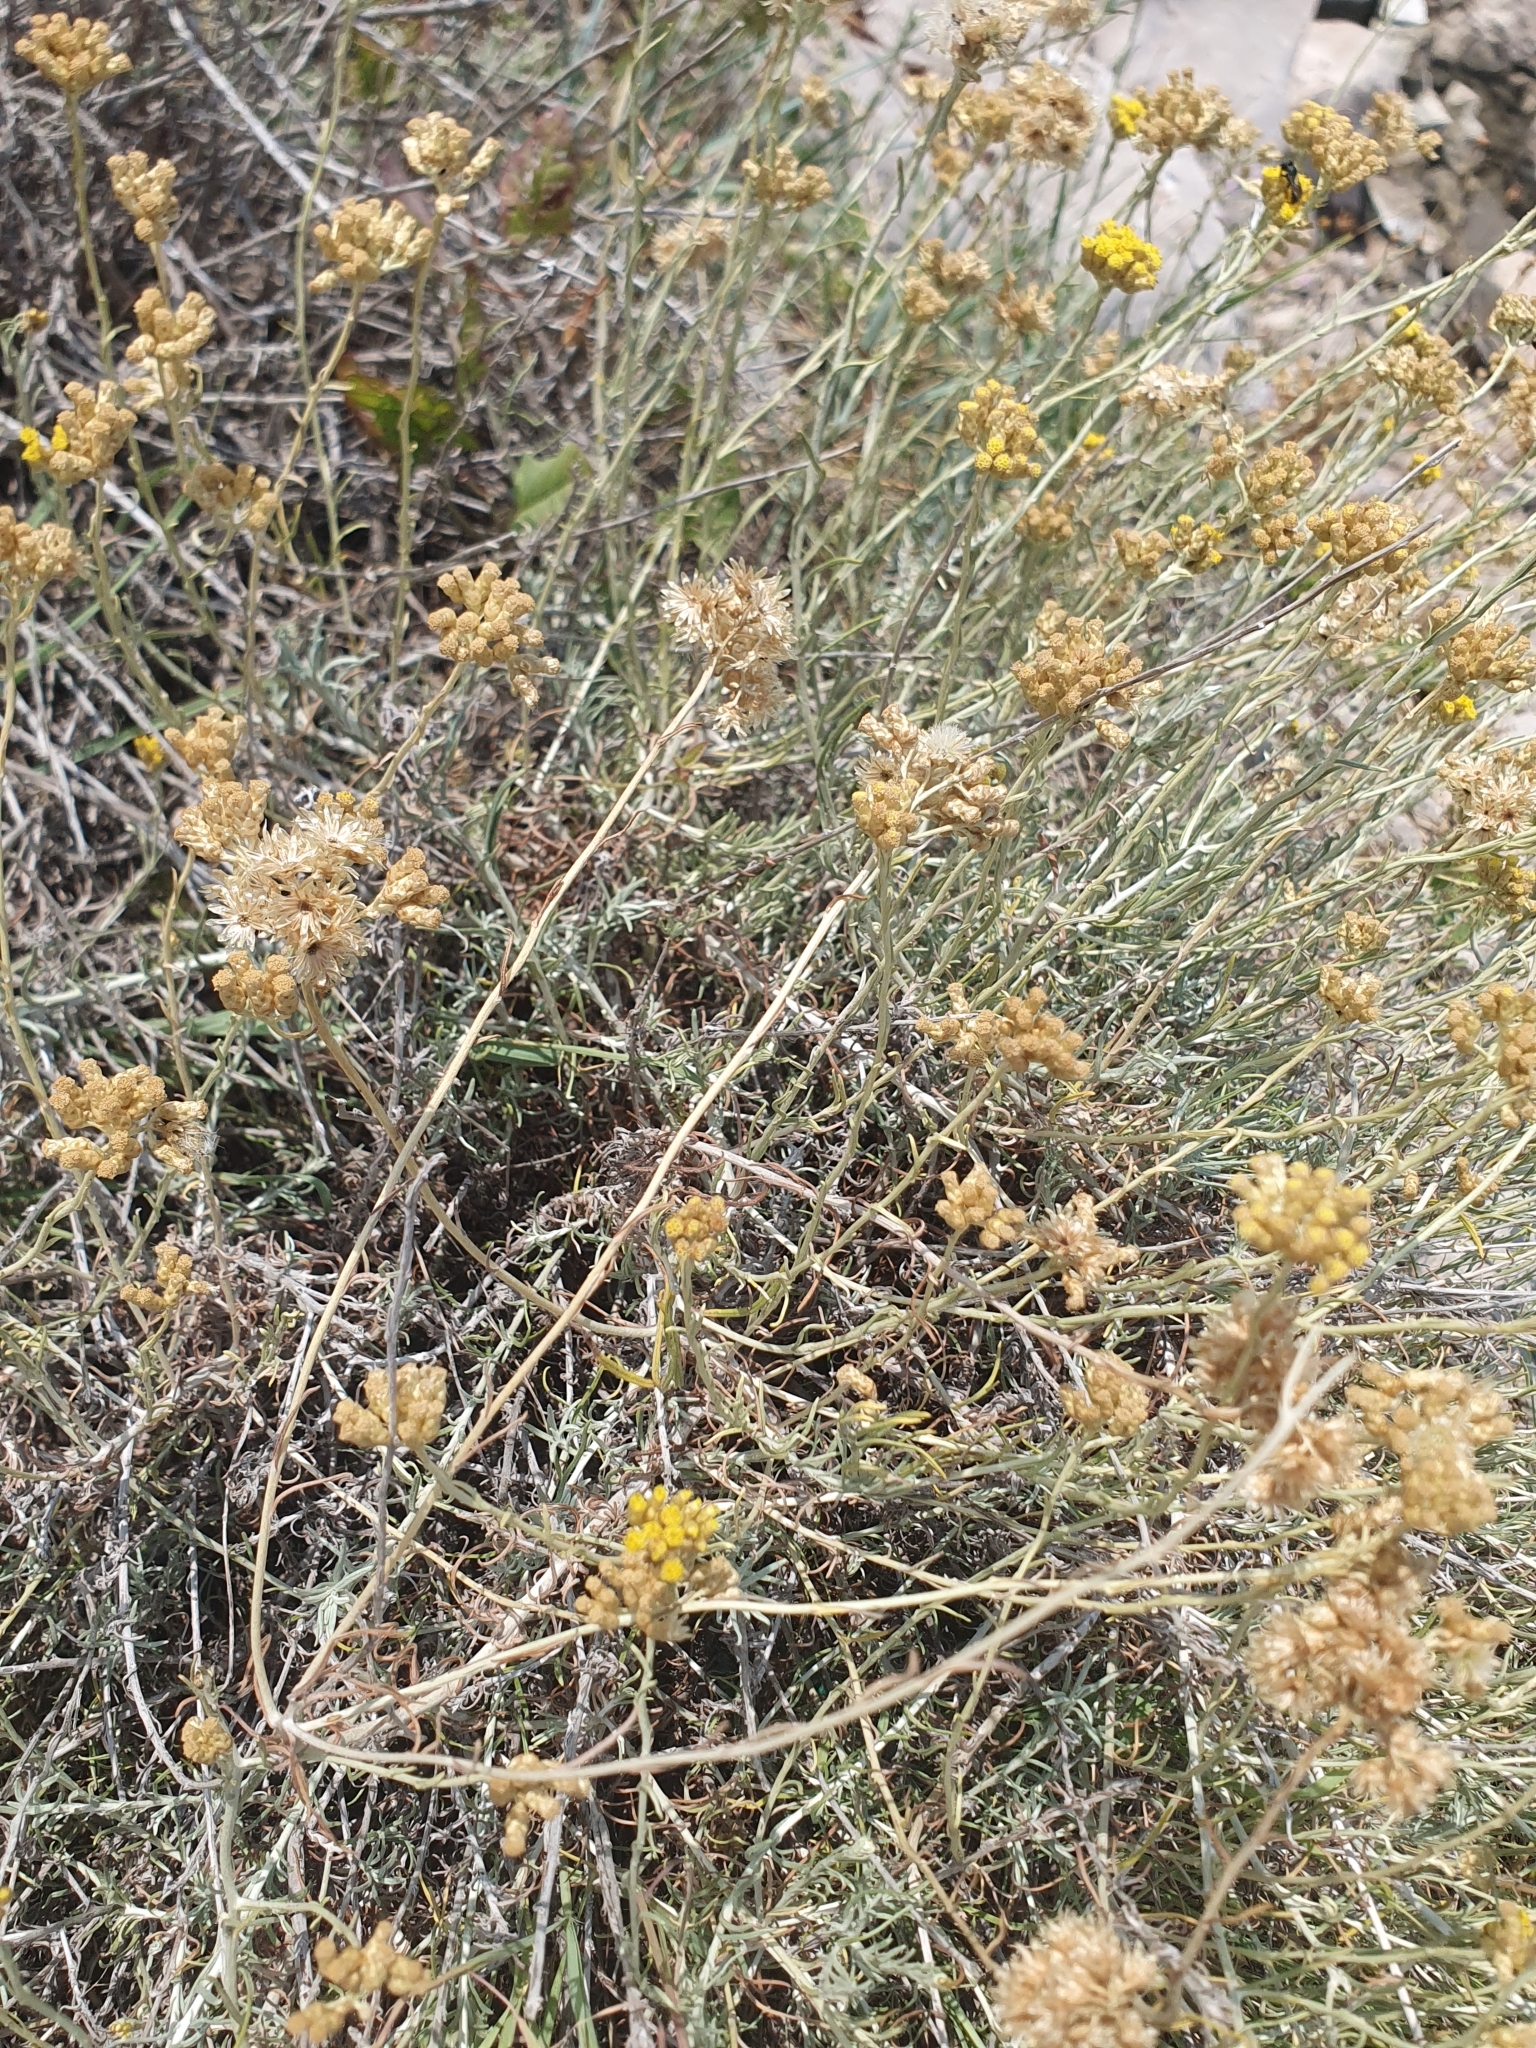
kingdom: Plantae
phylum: Tracheophyta
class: Magnoliopsida
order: Asterales
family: Asteraceae
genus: Helichrysum
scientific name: Helichrysum italicum
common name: Curryplant
